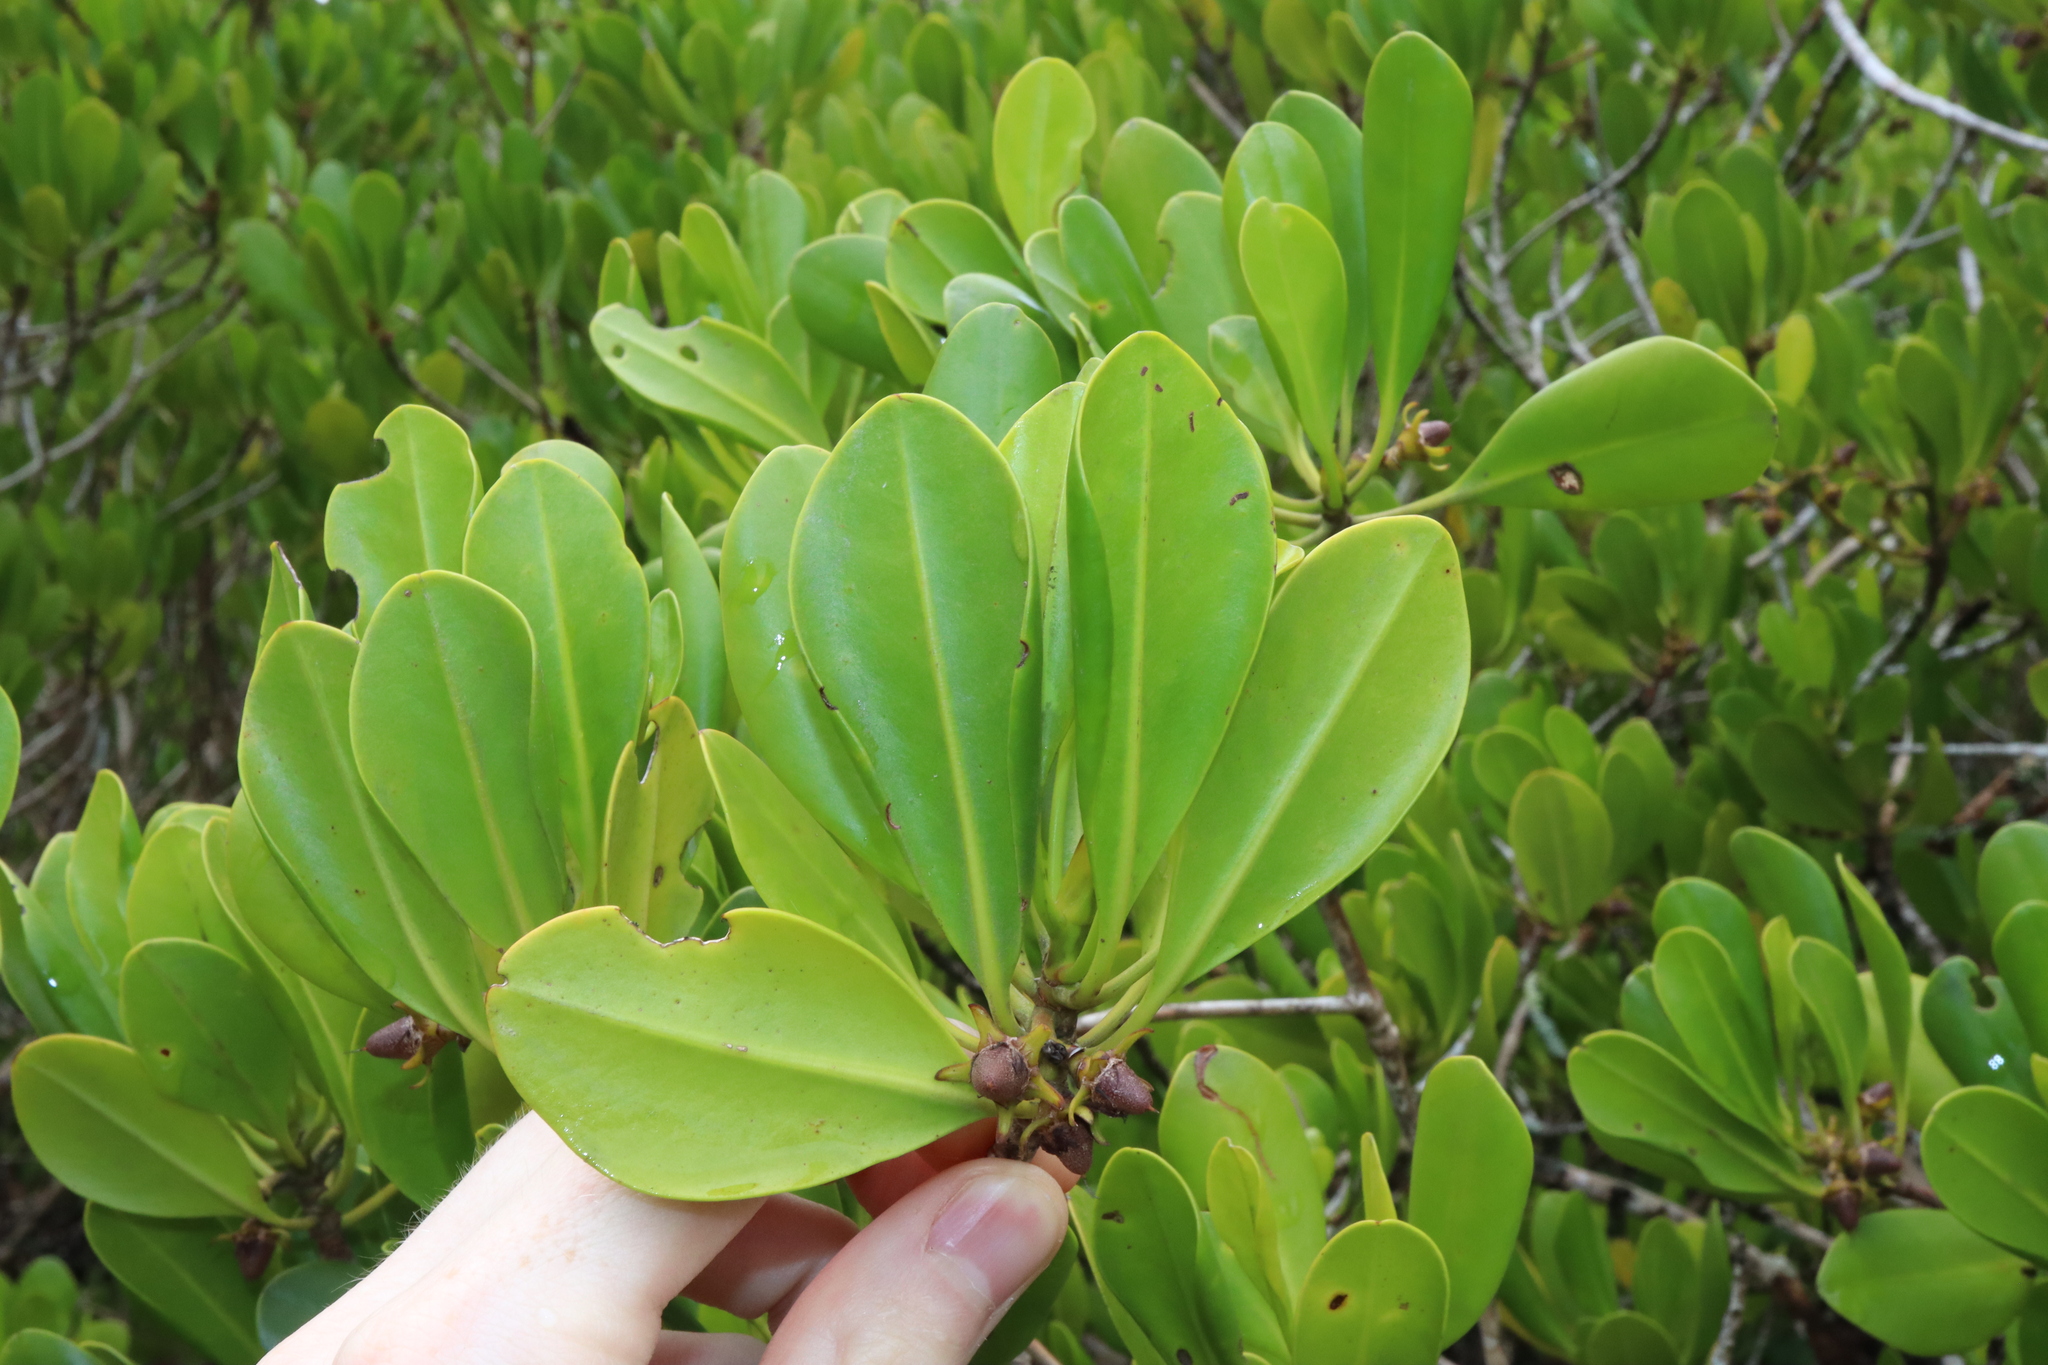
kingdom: Plantae
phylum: Tracheophyta
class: Magnoliopsida
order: Malpighiales
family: Rhizophoraceae
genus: Ceriops
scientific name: Ceriops australis
